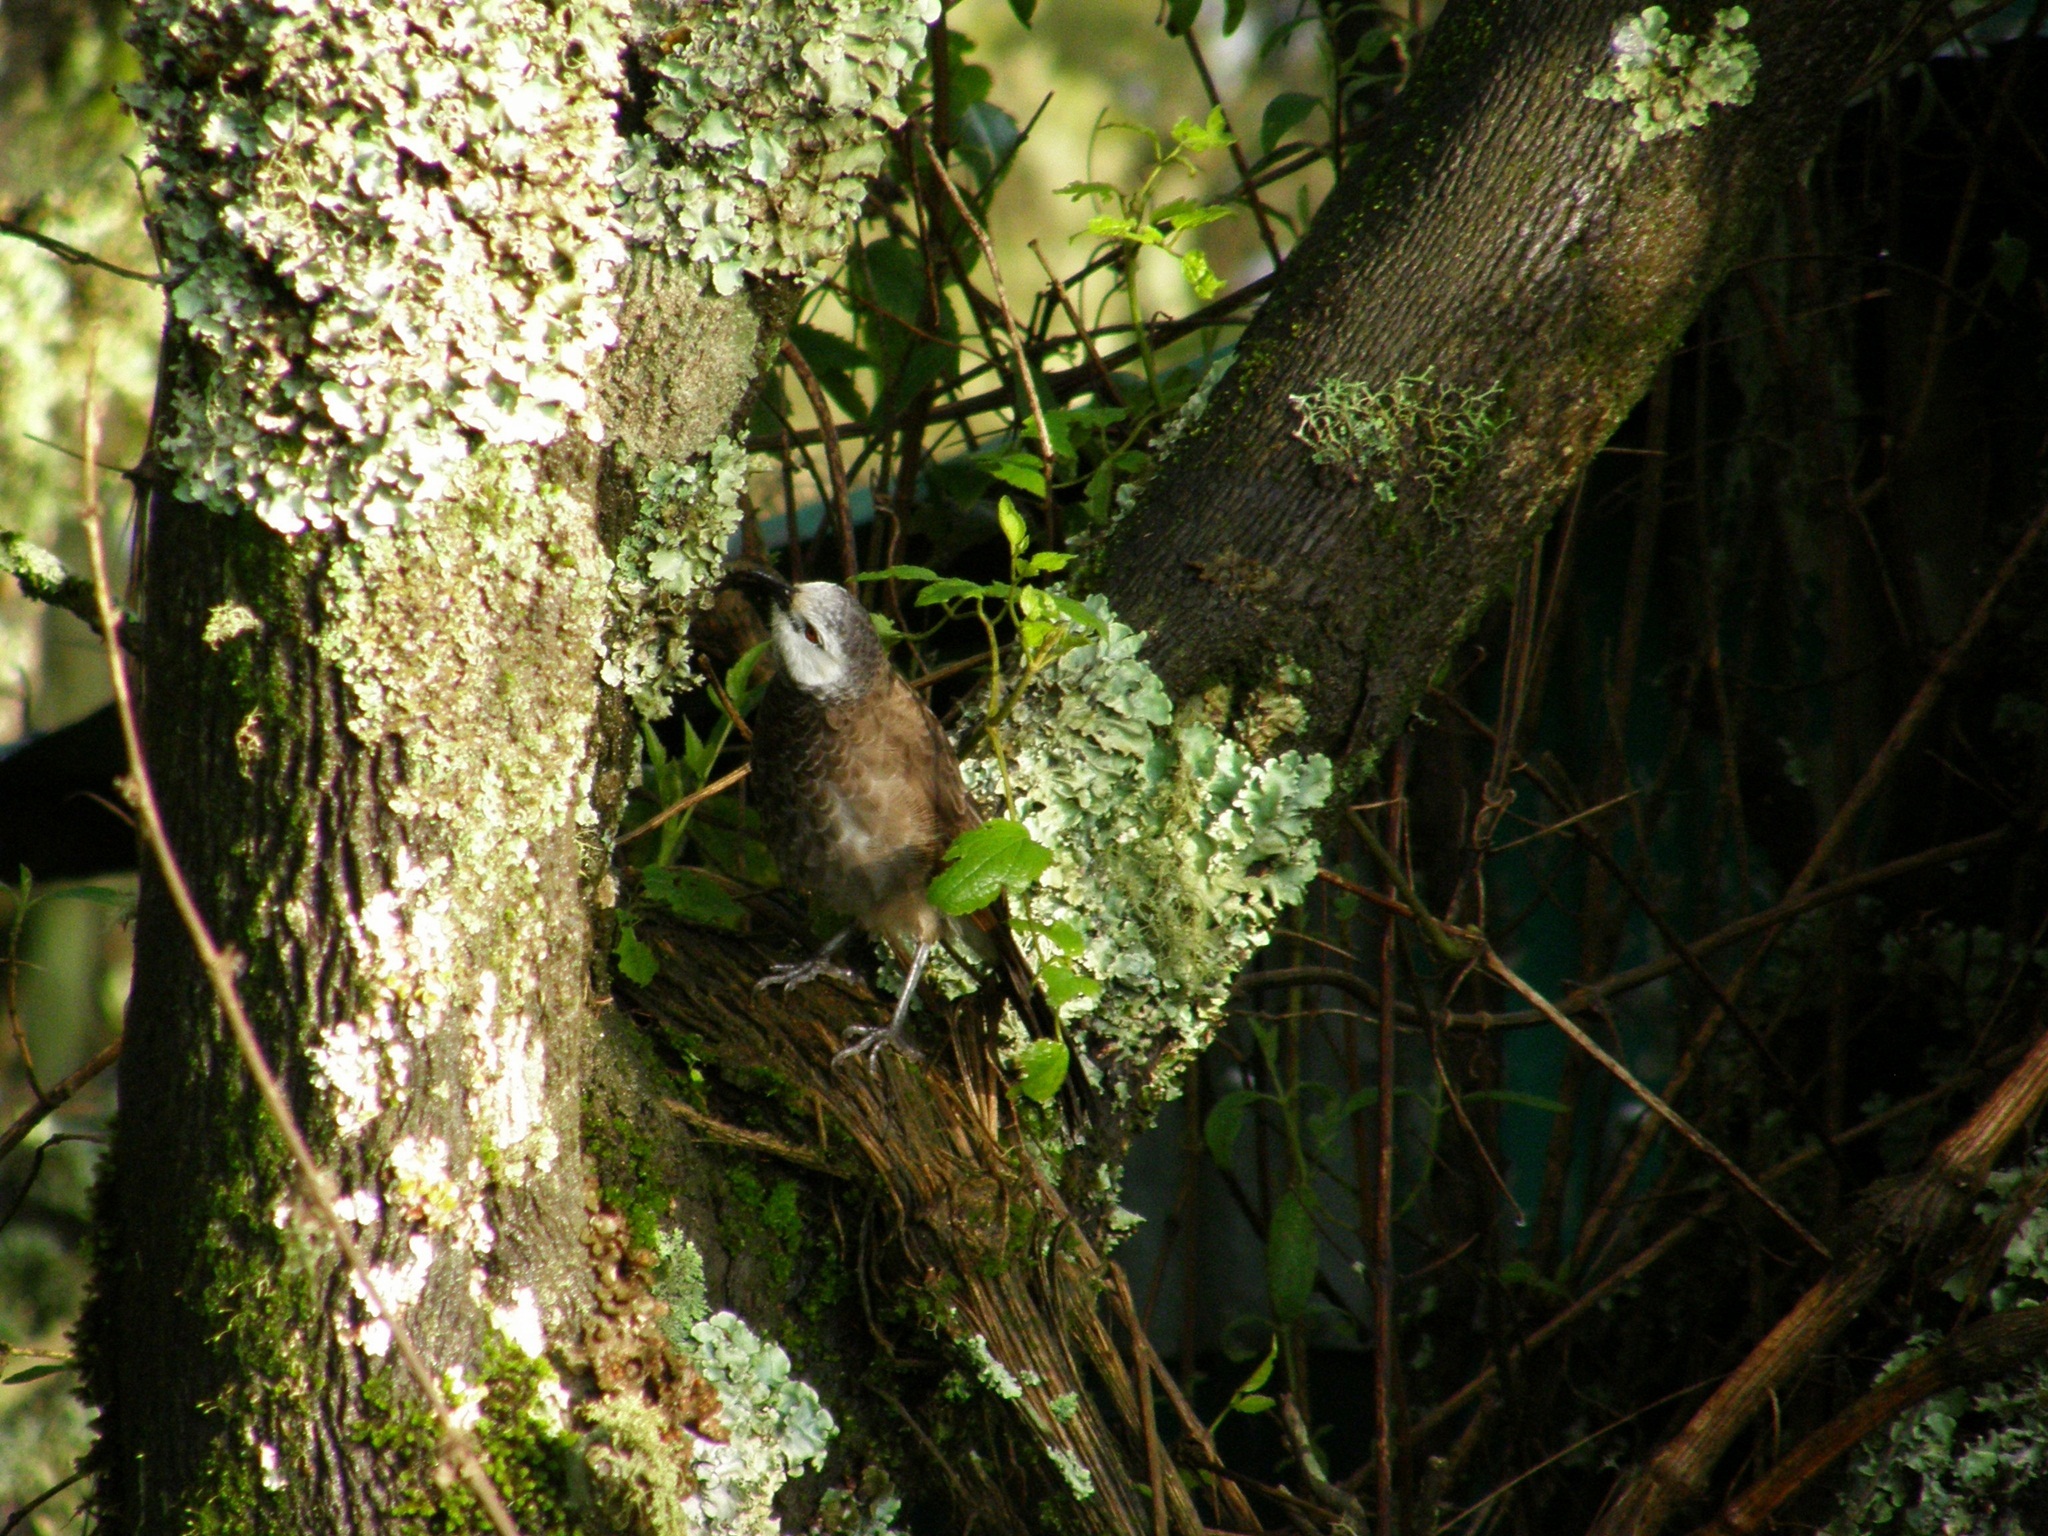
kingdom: Animalia
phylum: Chordata
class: Aves
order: Passeriformes
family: Leiothrichidae
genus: Turdoides
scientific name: Turdoides leucopygia
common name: White-rumped babbler
